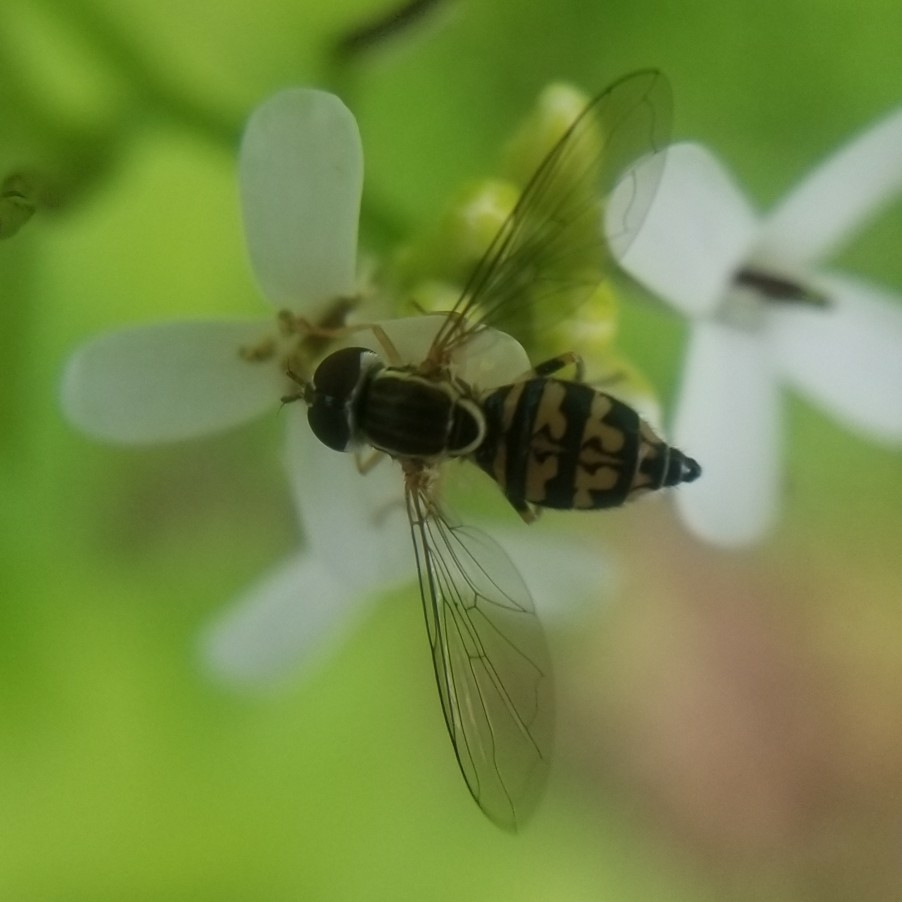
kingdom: Animalia
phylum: Arthropoda
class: Insecta
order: Diptera
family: Syrphidae
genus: Toxomerus
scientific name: Toxomerus geminatus
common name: Eastern calligrapher
